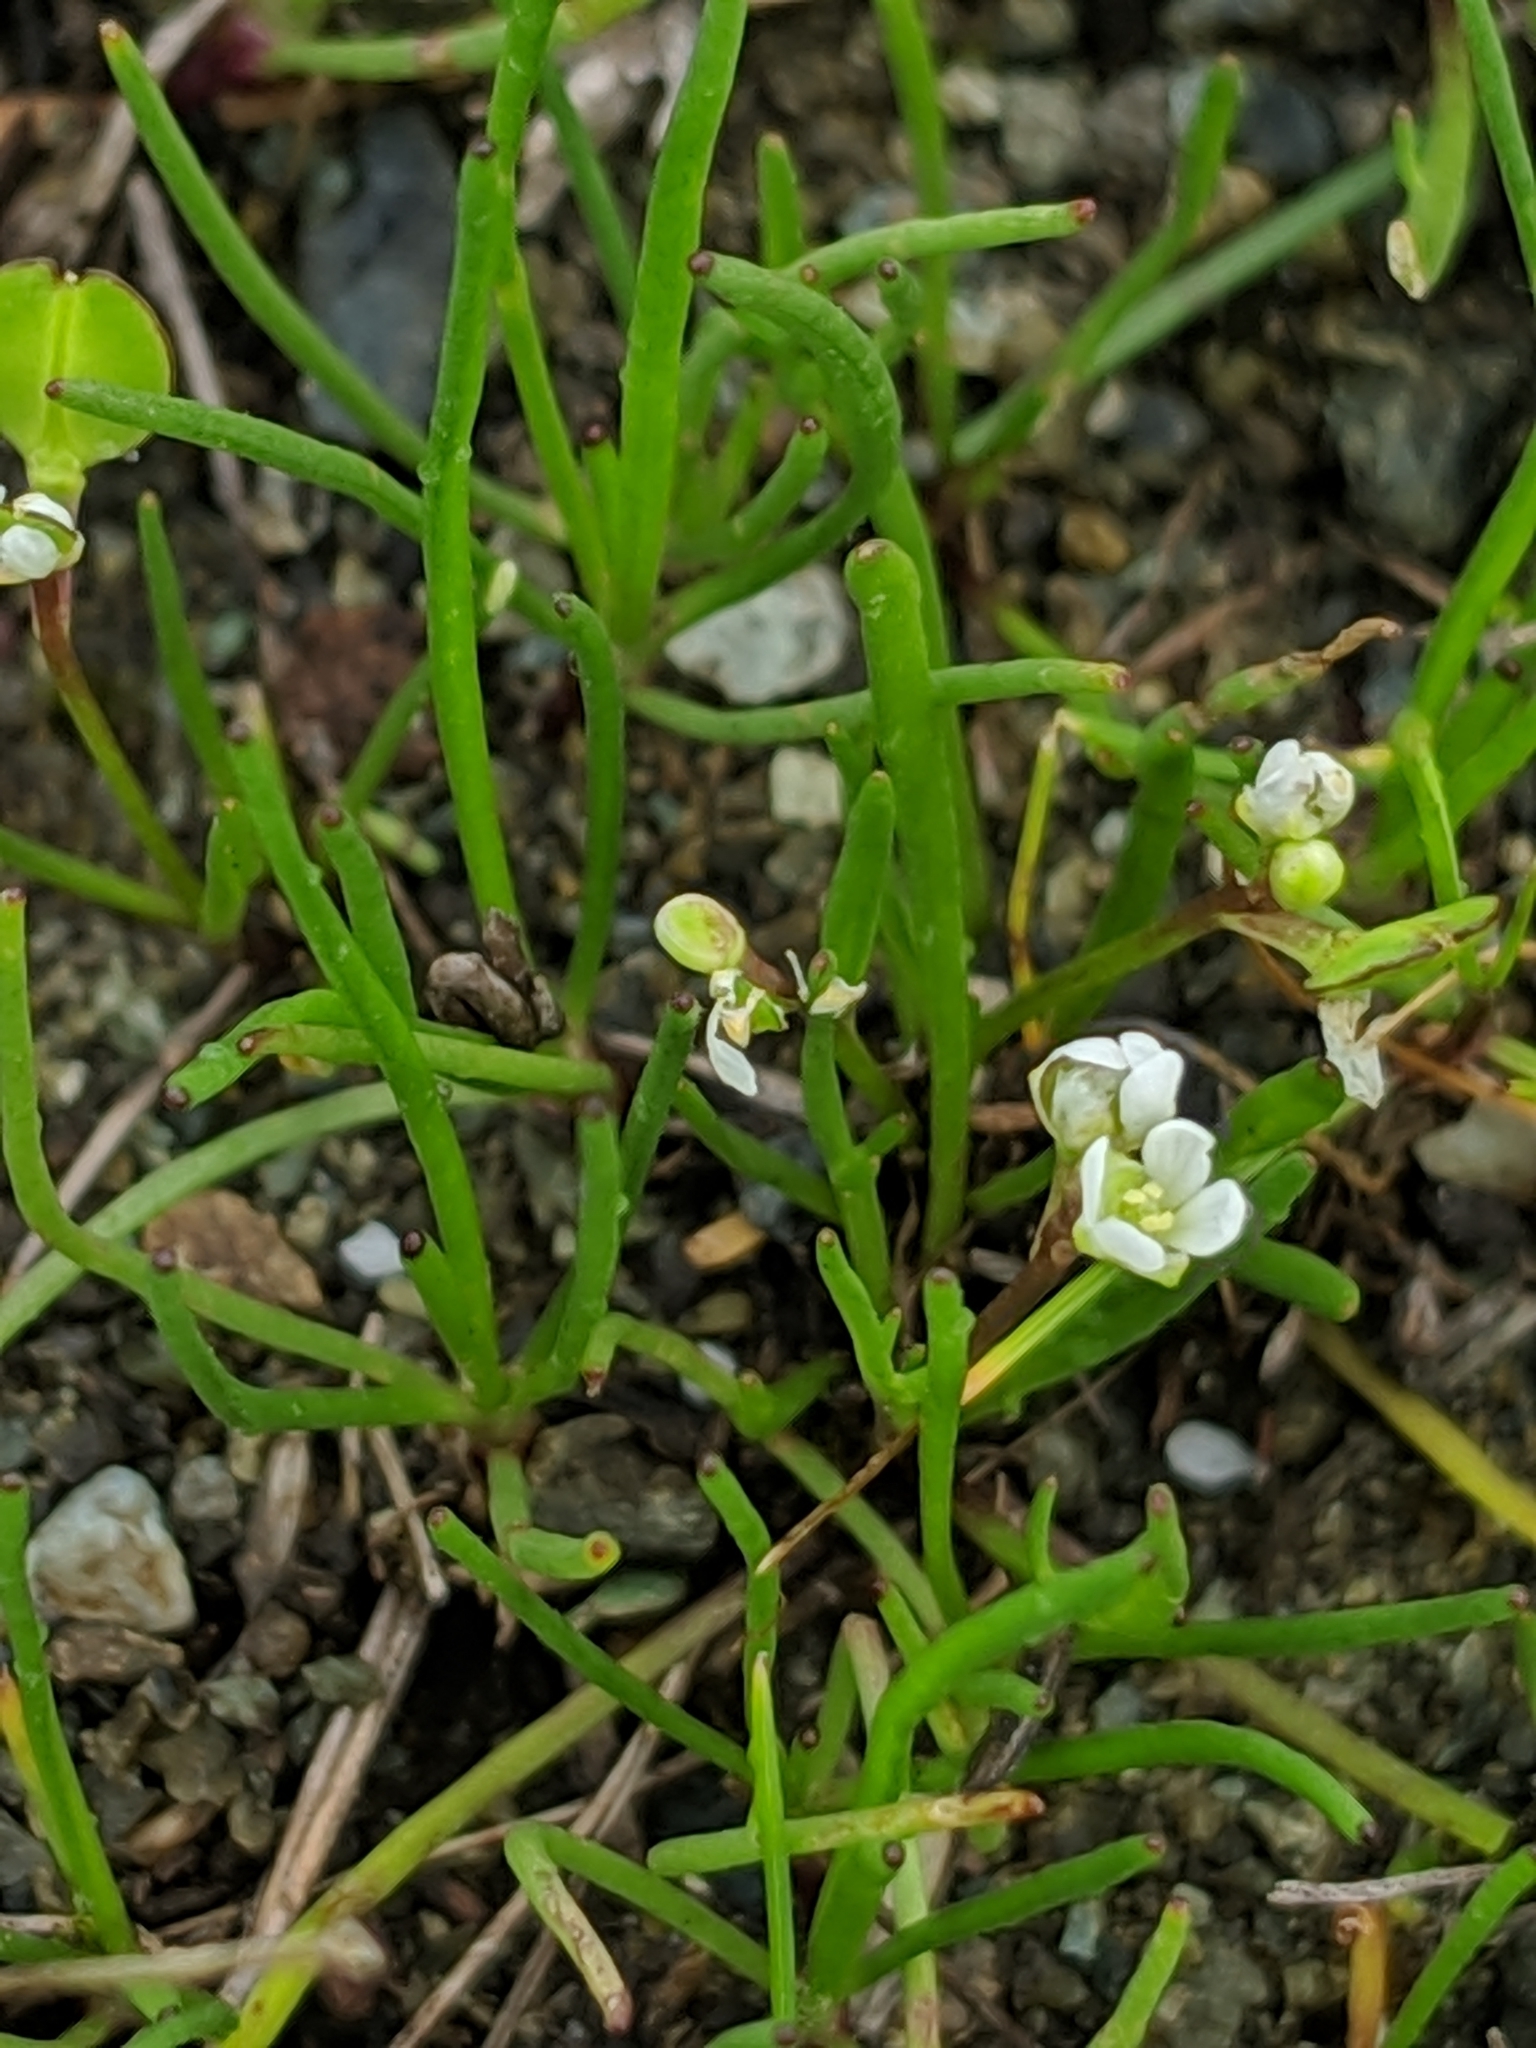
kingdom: Plantae
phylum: Tracheophyta
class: Magnoliopsida
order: Brassicales
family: Brassicaceae
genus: Lepidium
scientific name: Lepidium nitidum
